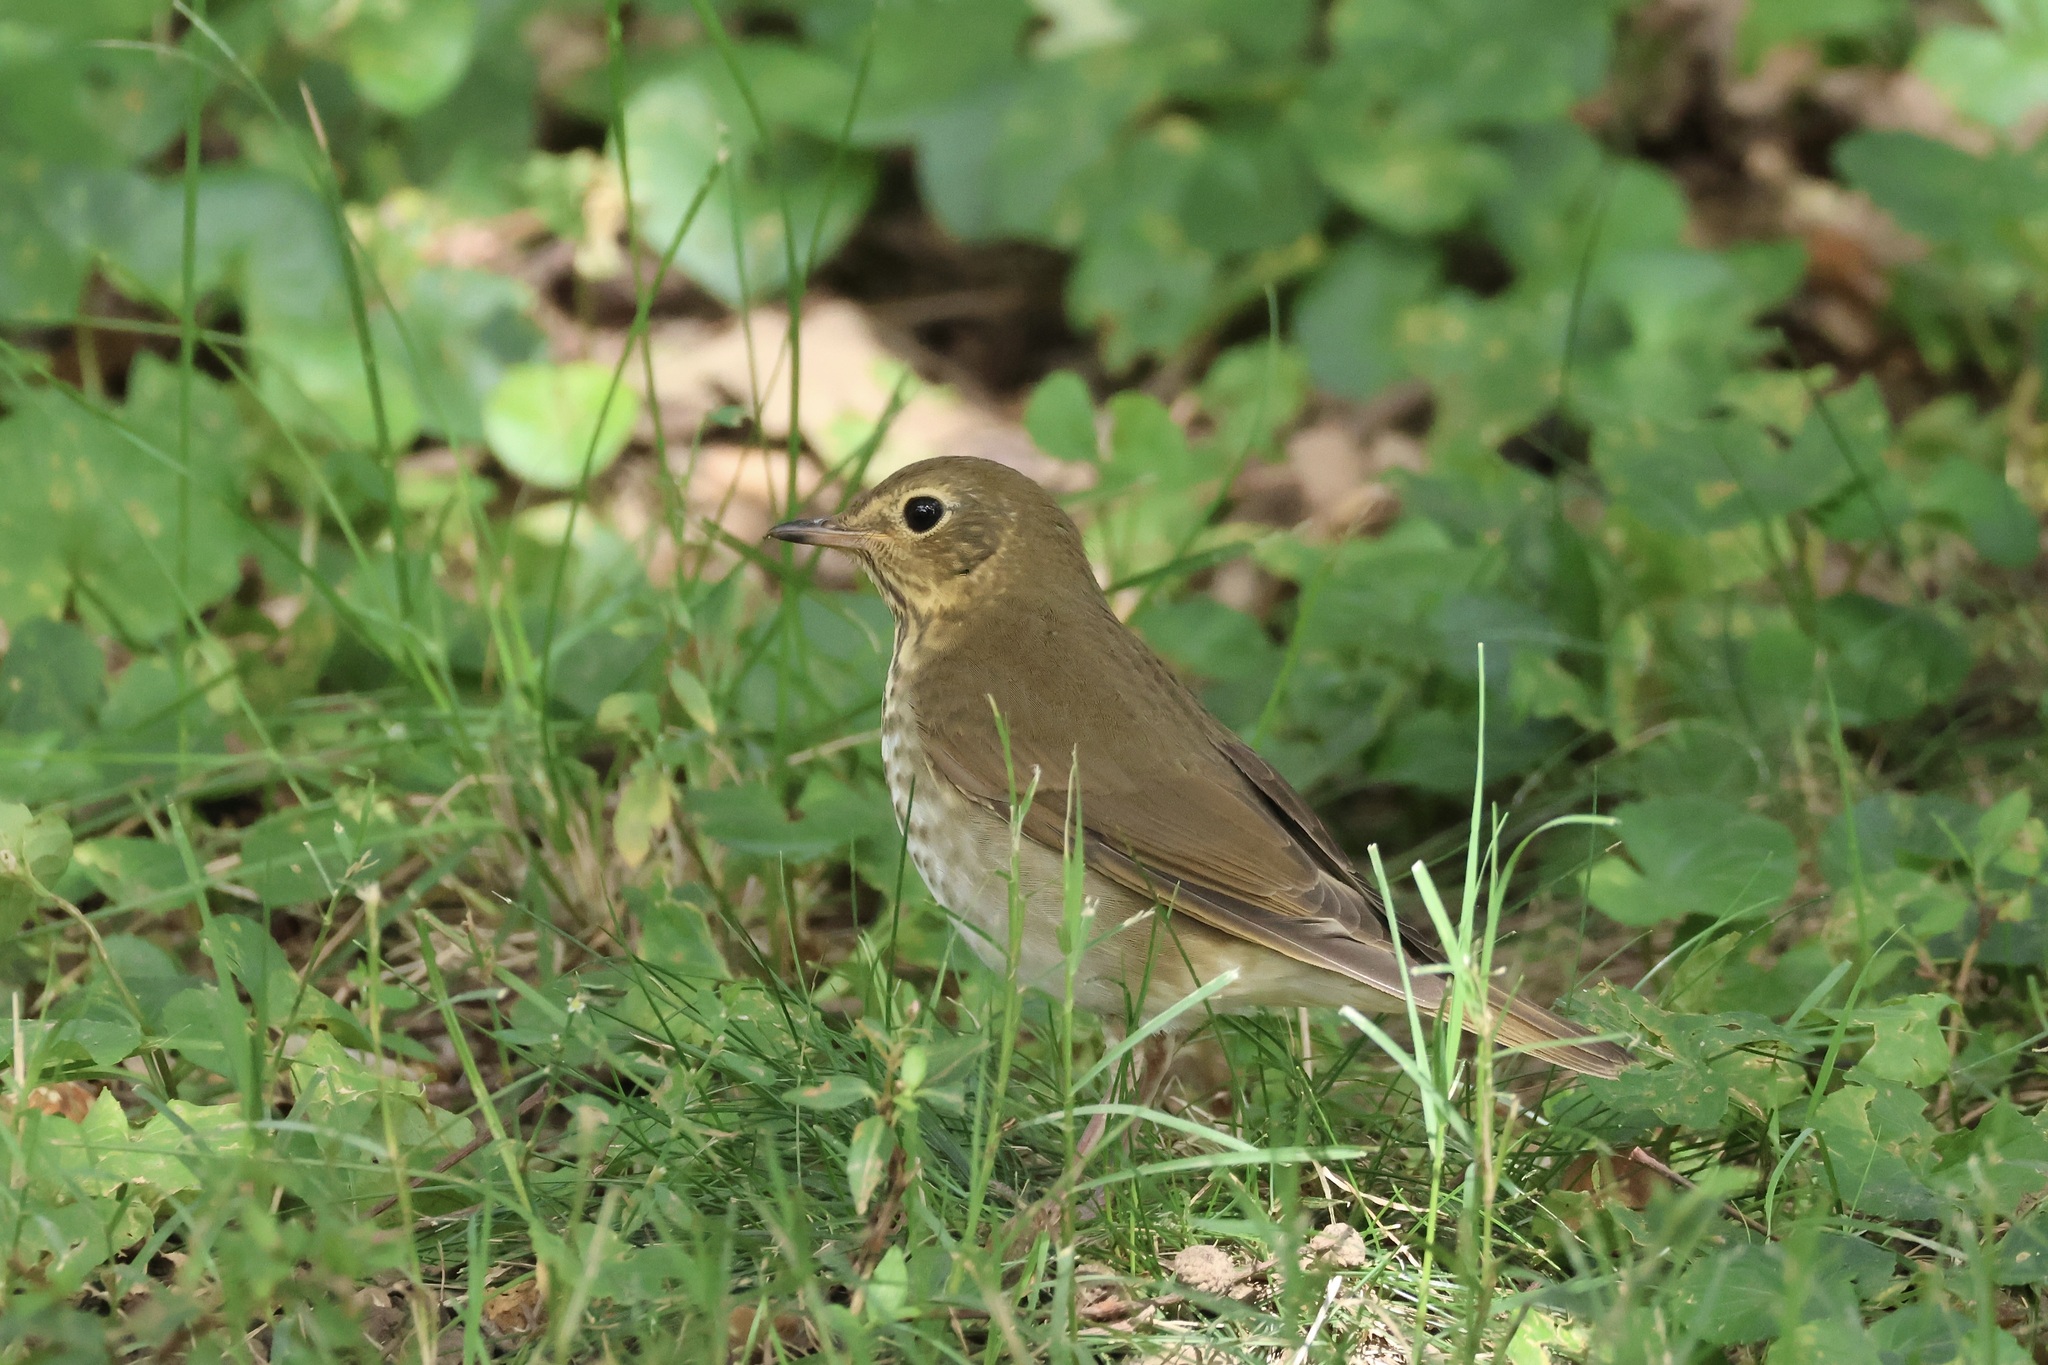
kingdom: Animalia
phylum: Chordata
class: Aves
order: Passeriformes
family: Turdidae
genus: Catharus
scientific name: Catharus ustulatus
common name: Swainson's thrush
